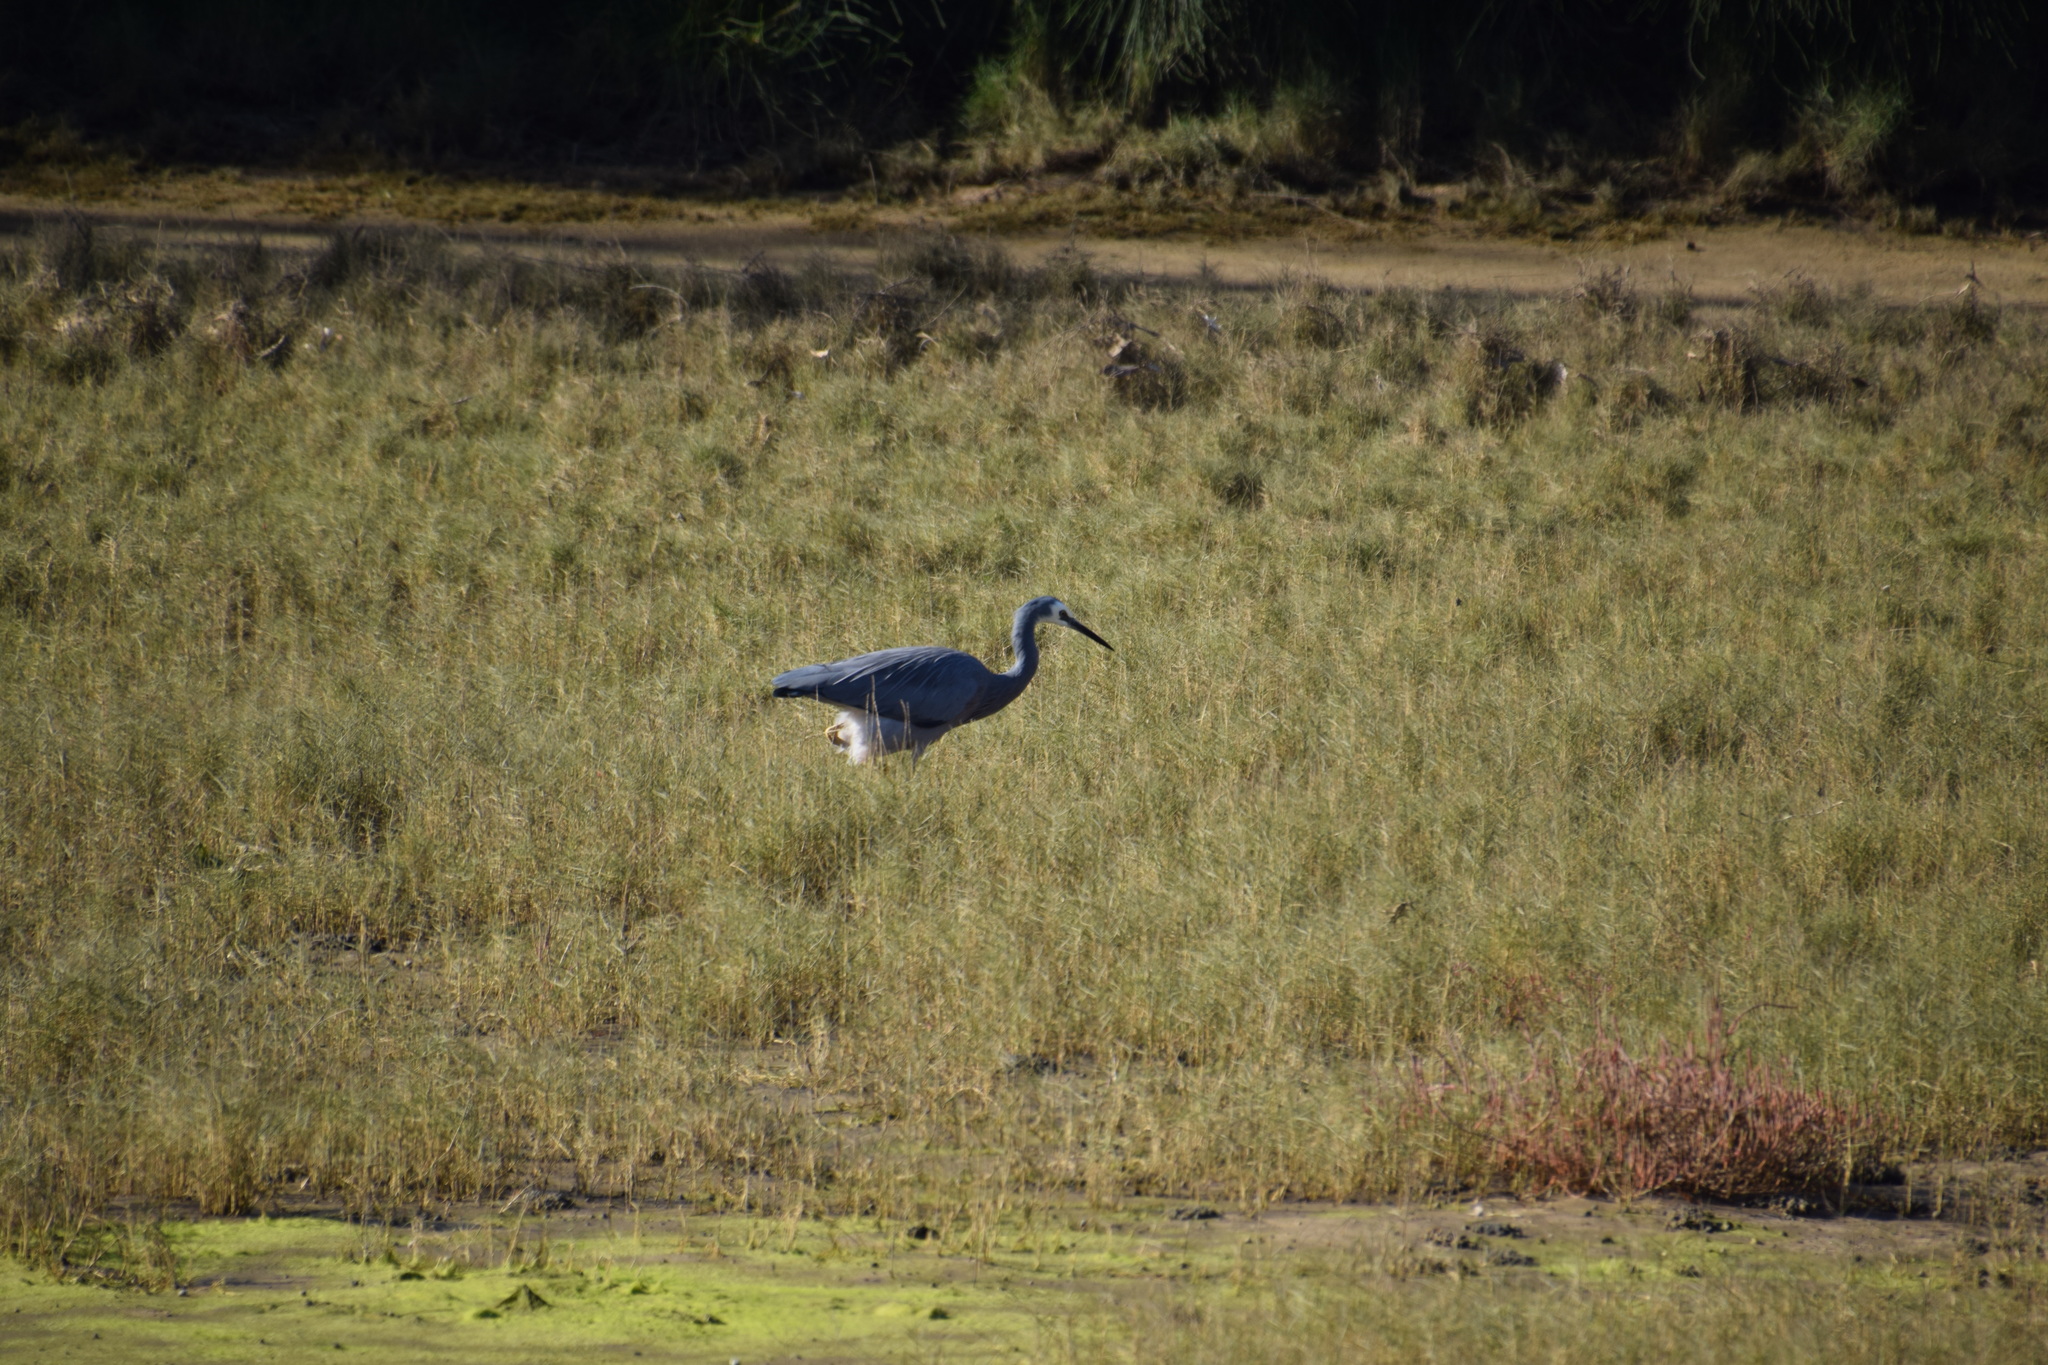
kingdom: Animalia
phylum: Chordata
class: Aves
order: Pelecaniformes
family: Ardeidae
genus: Egretta
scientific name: Egretta novaehollandiae
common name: White-faced heron
